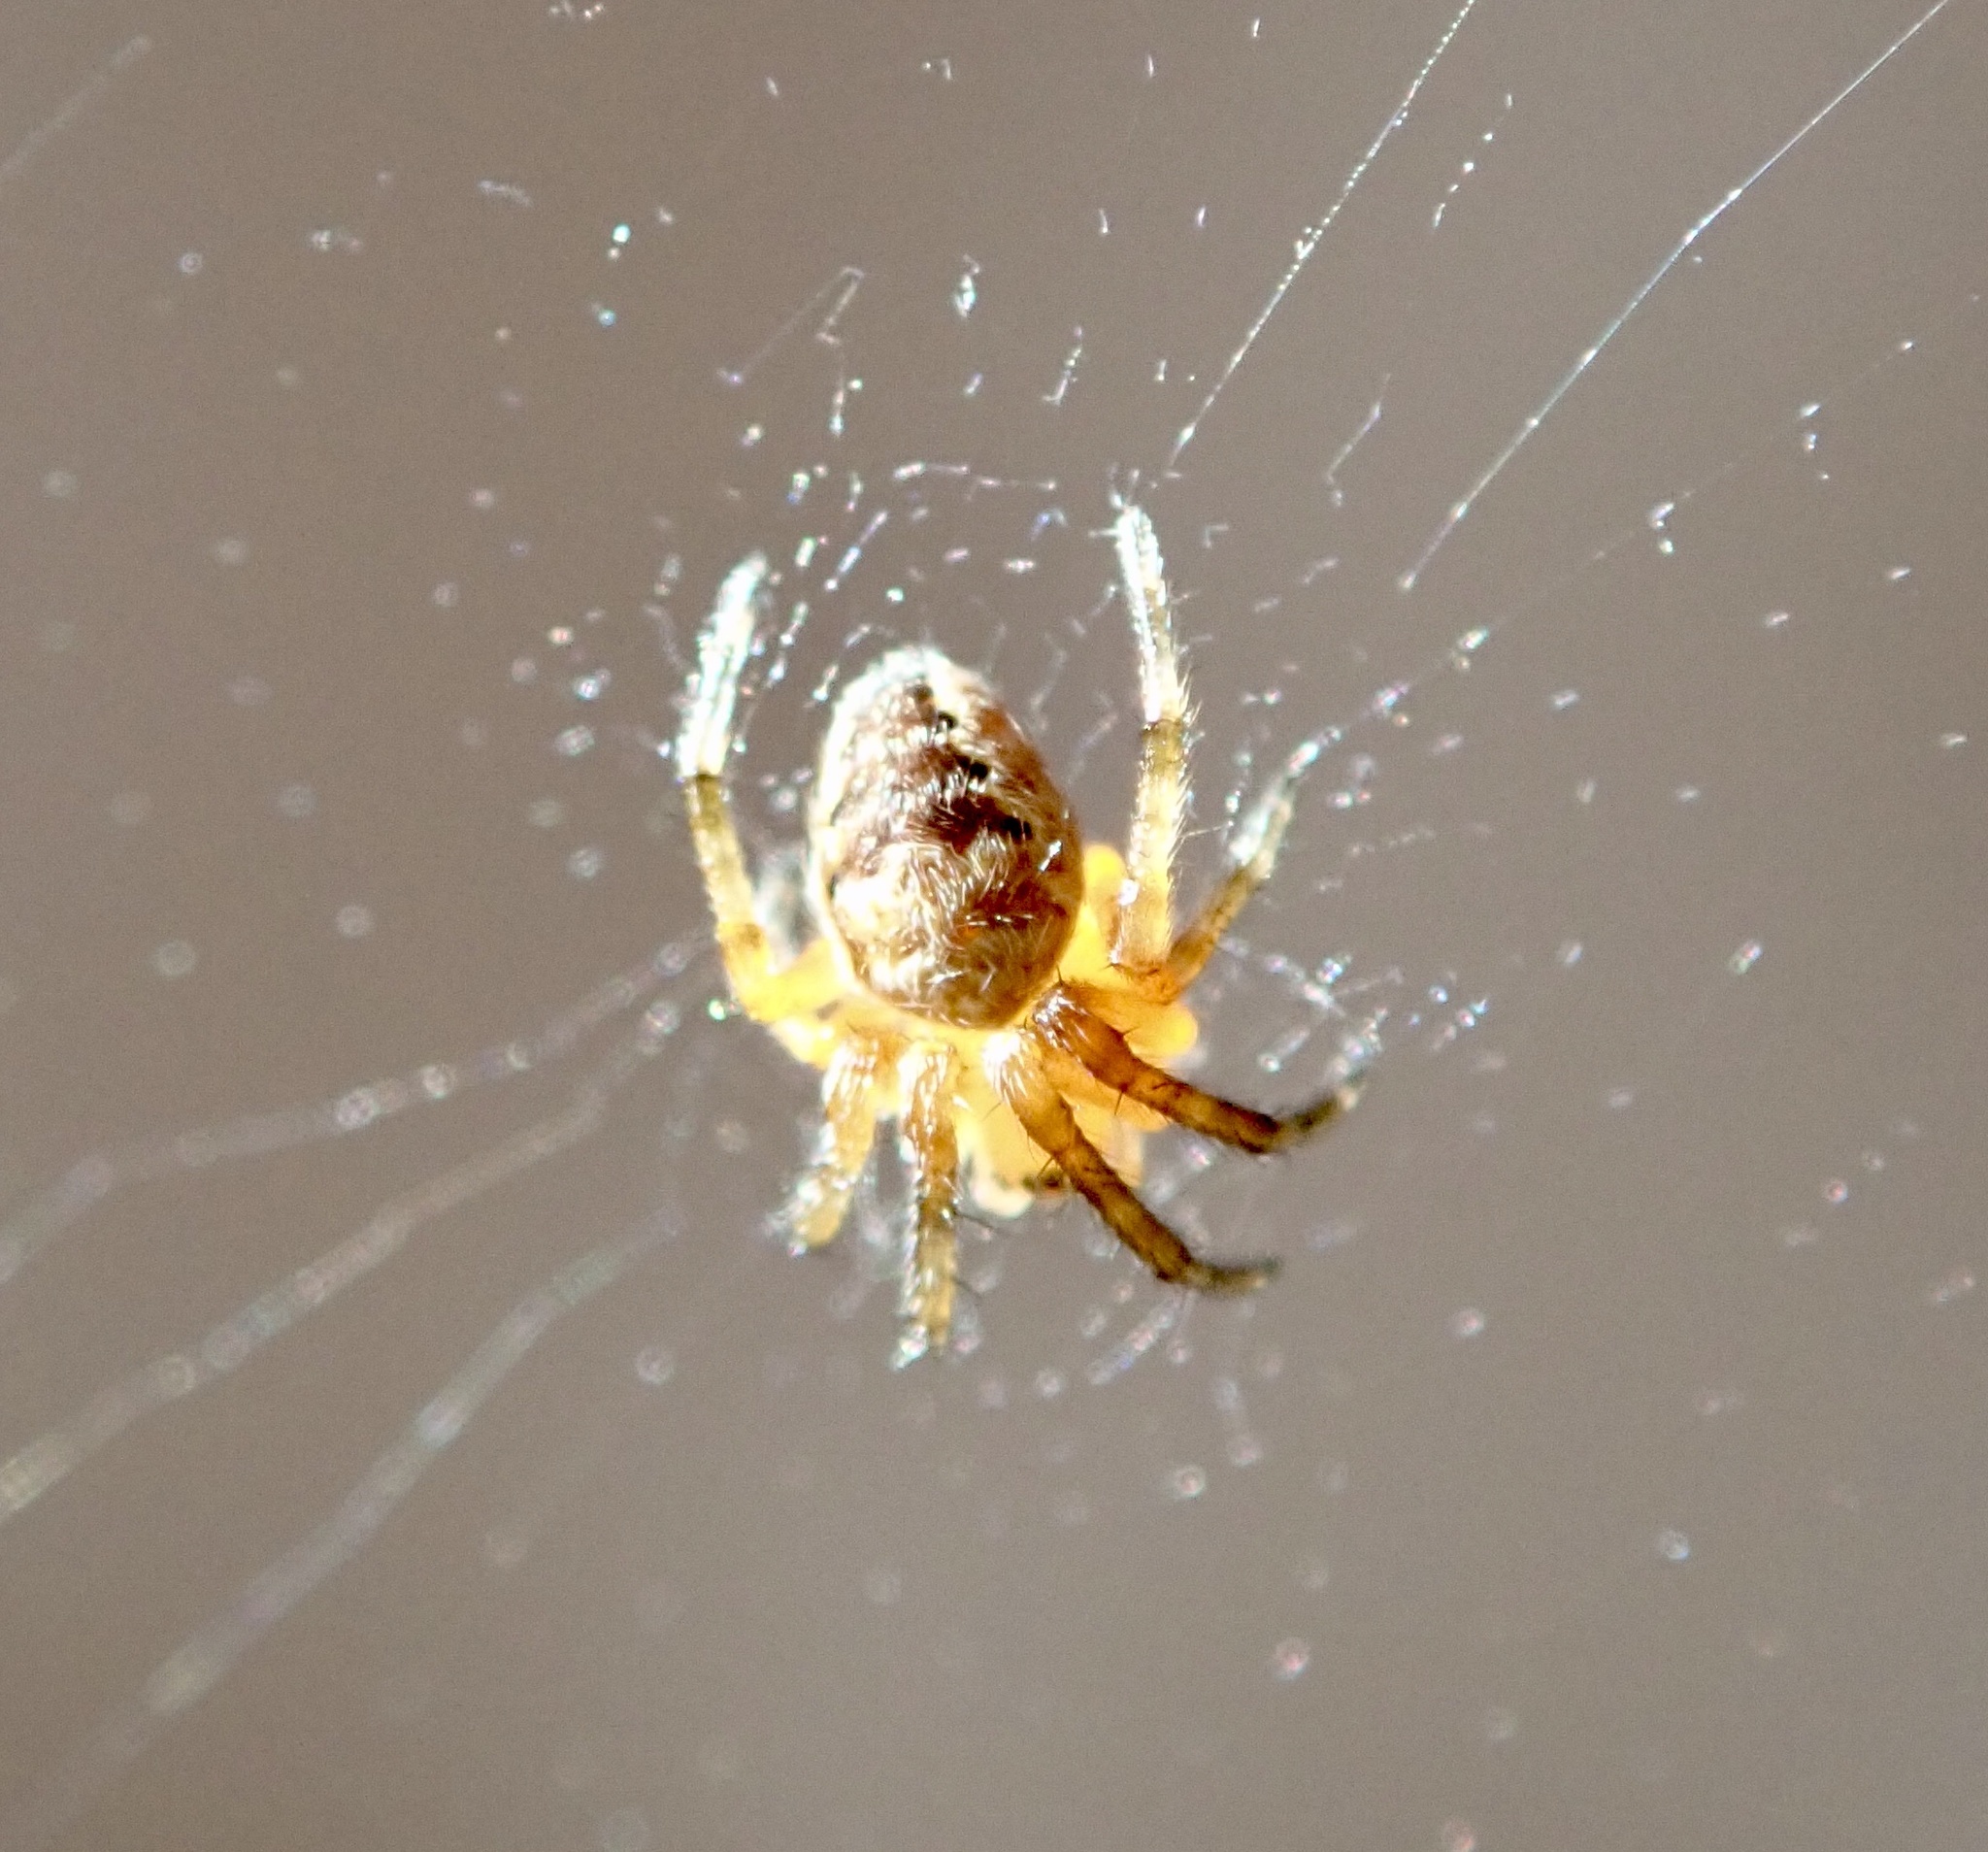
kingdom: Animalia
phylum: Arthropoda
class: Arachnida
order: Araneae
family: Araneidae
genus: Araneus
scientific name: Araneus diadematus
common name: Cross orbweaver
